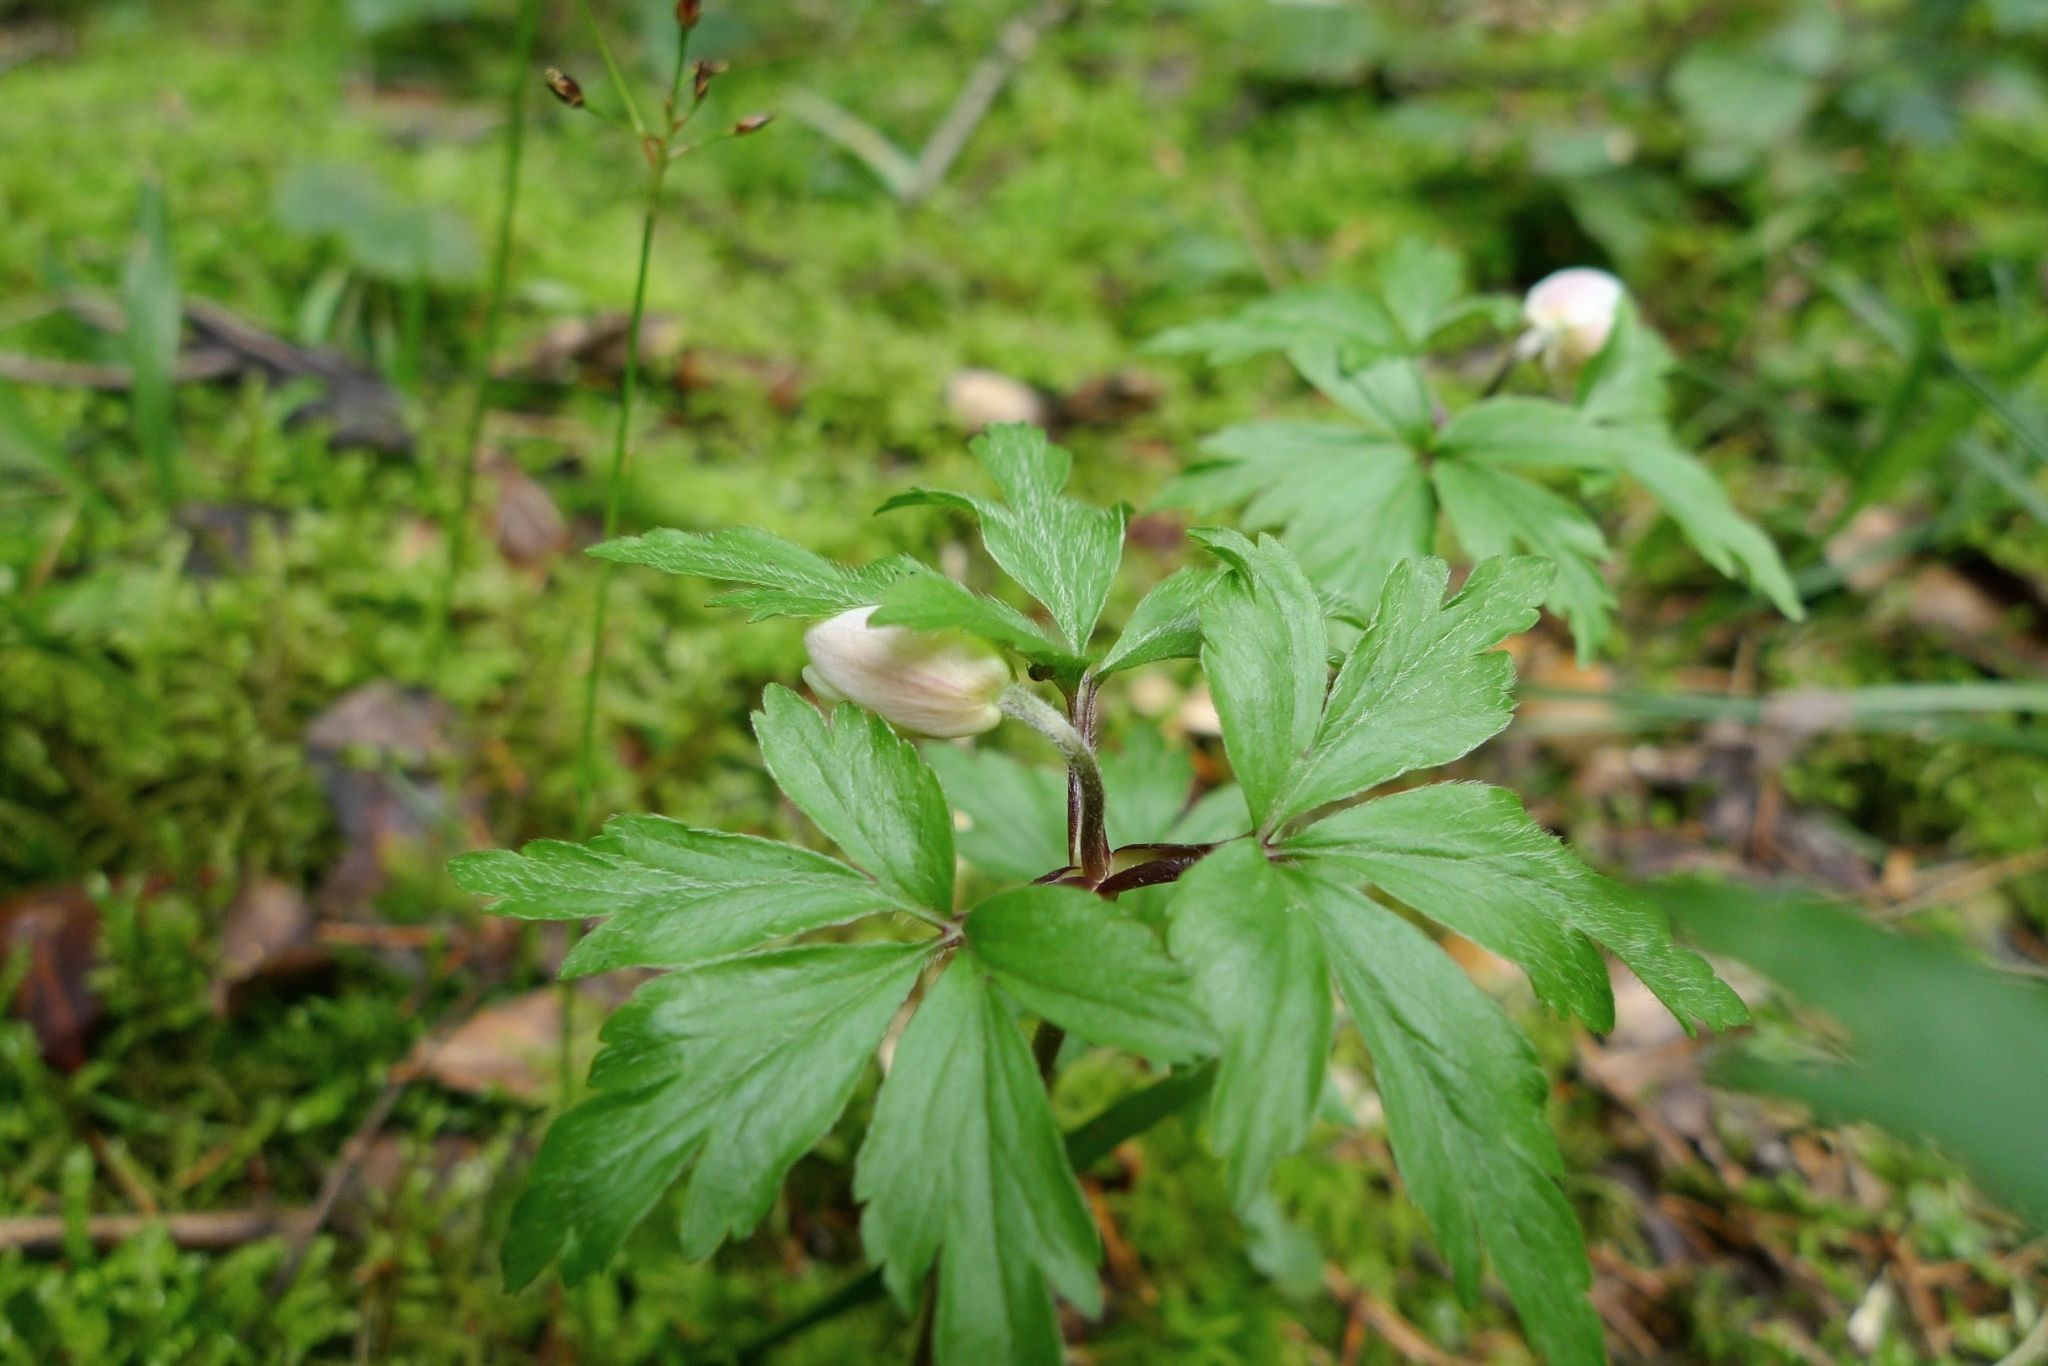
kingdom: Plantae
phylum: Tracheophyta
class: Magnoliopsida
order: Ranunculales
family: Ranunculaceae
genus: Anemone
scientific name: Anemone nemorosa
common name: Wood anemone
